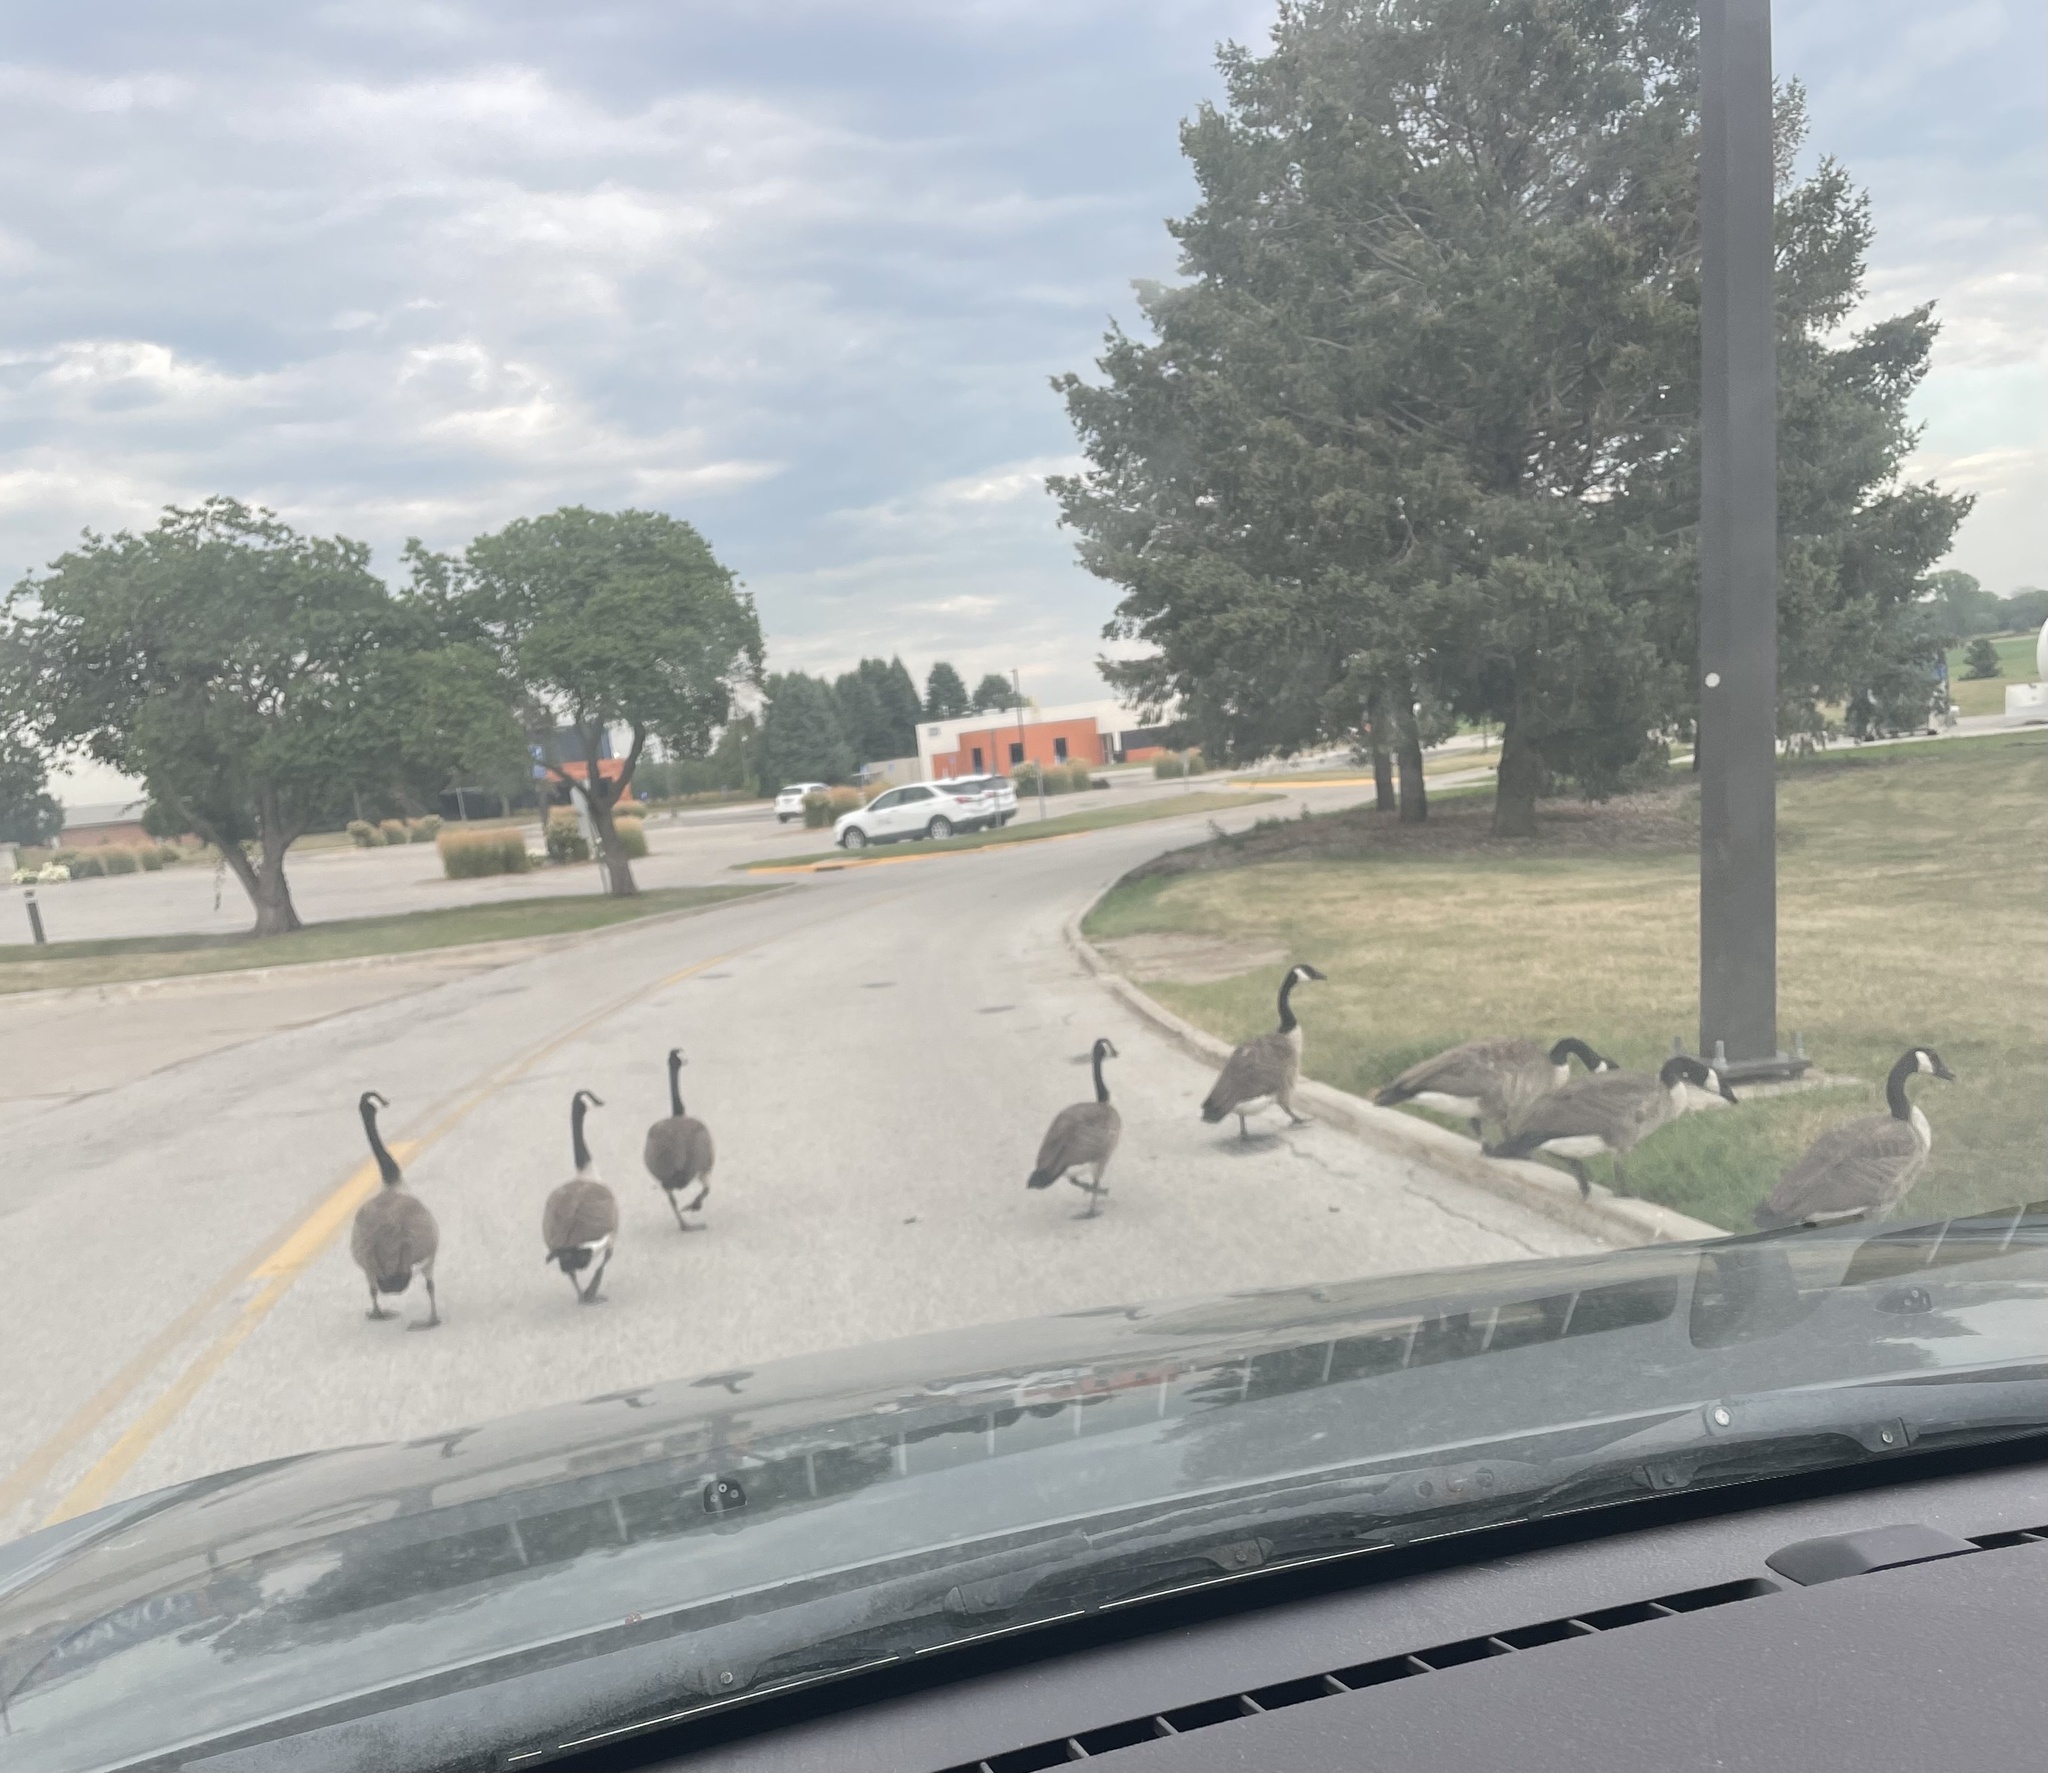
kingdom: Animalia
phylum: Chordata
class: Aves
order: Anseriformes
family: Anatidae
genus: Branta
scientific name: Branta canadensis
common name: Canada goose
